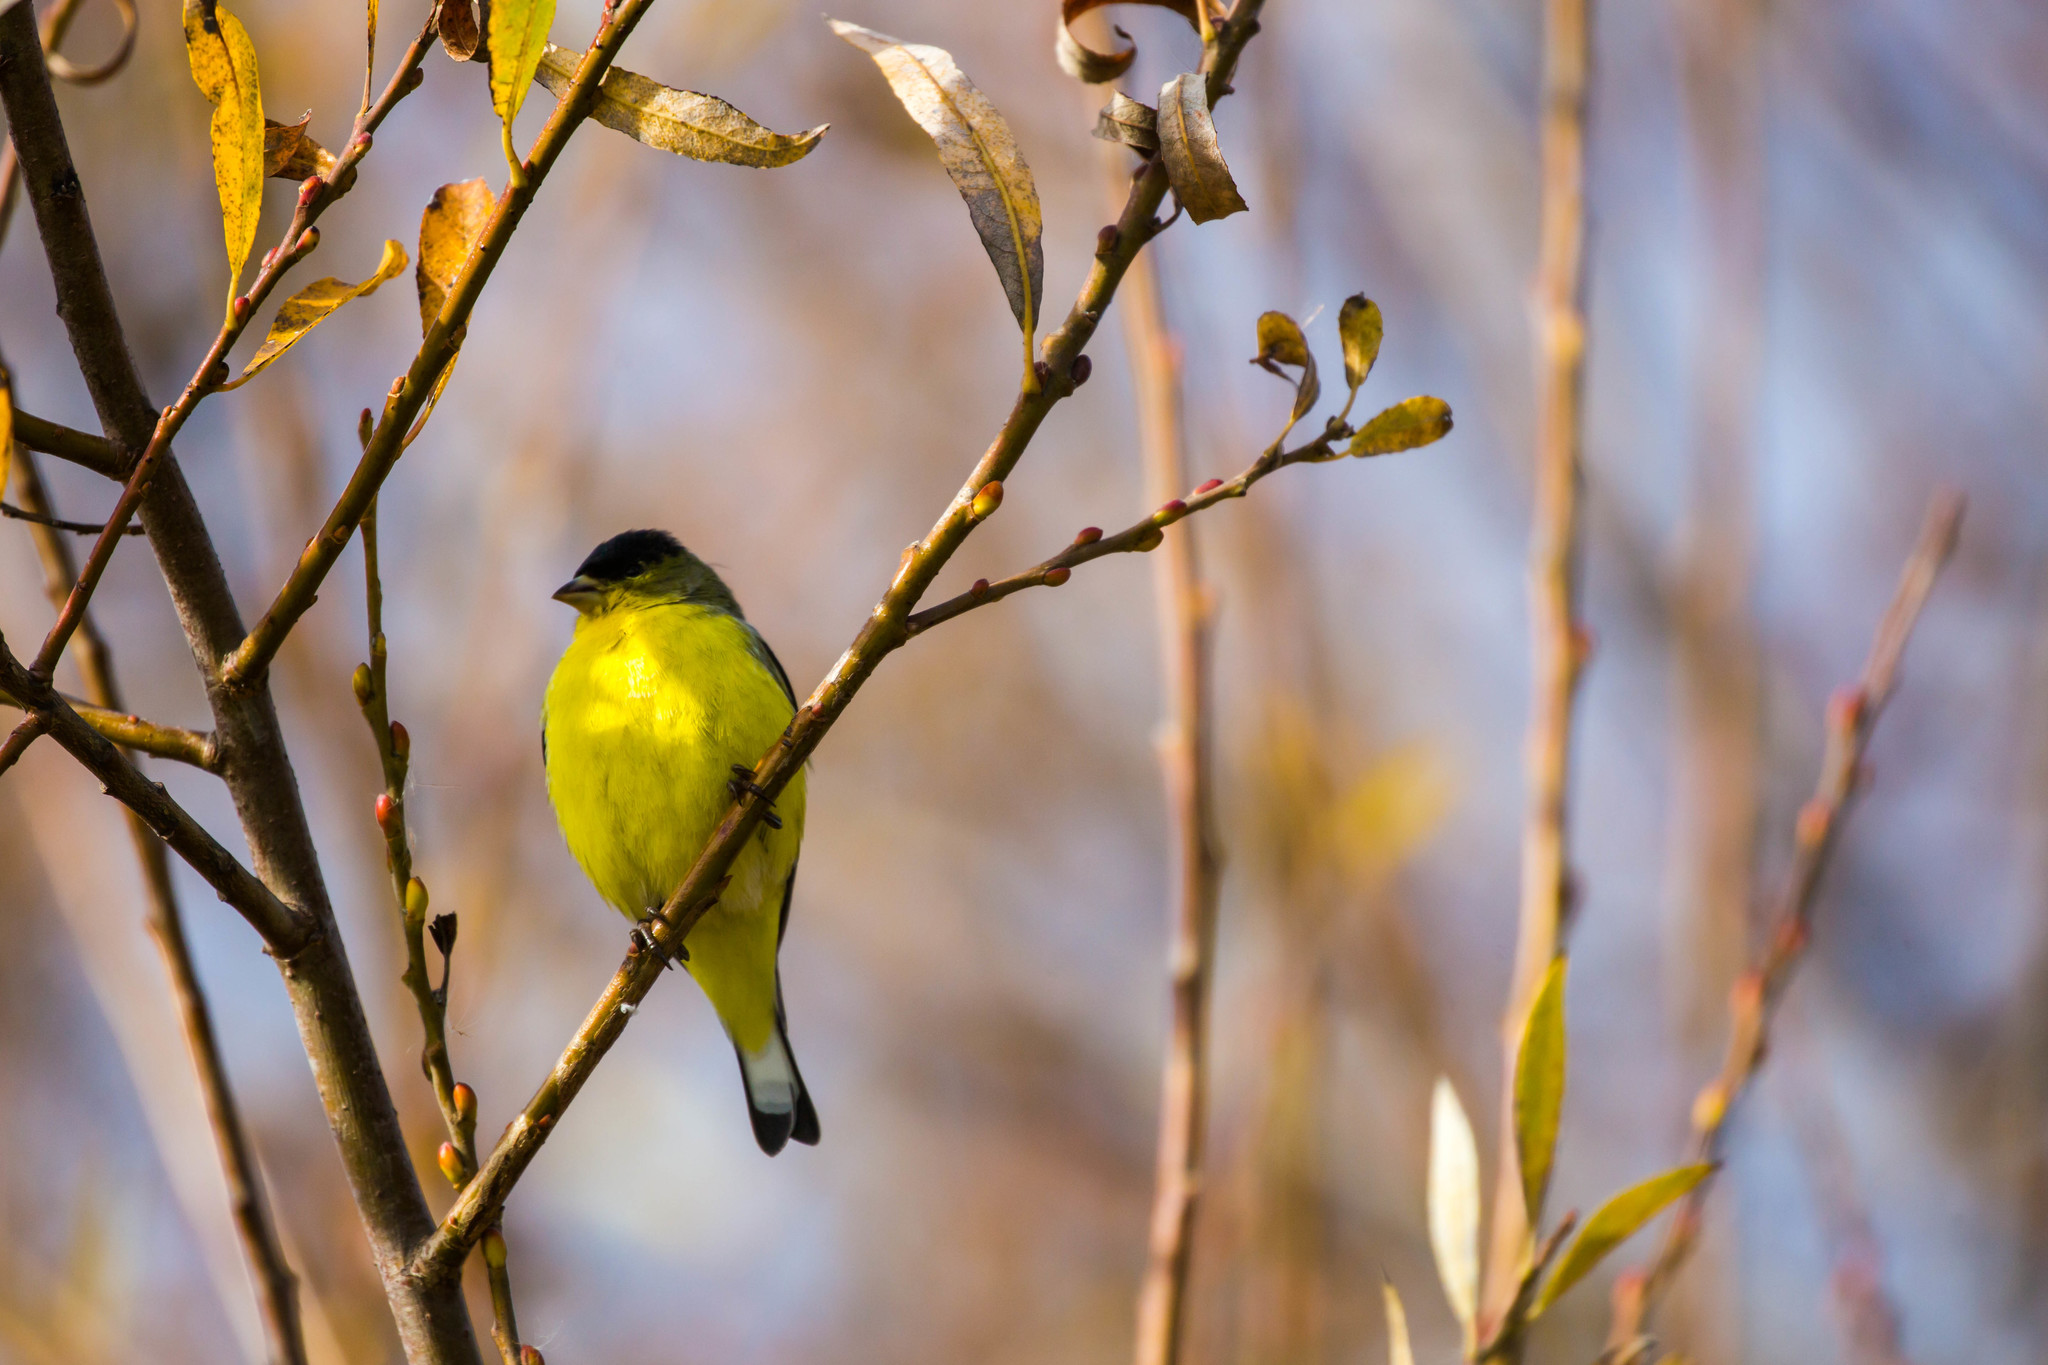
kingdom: Animalia
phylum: Chordata
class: Aves
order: Passeriformes
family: Fringillidae
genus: Spinus
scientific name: Spinus psaltria
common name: Lesser goldfinch
